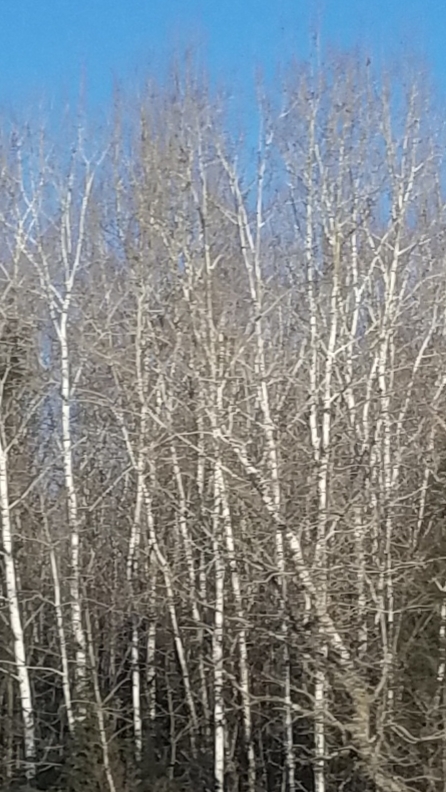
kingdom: Plantae
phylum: Tracheophyta
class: Magnoliopsida
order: Malpighiales
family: Salicaceae
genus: Populus
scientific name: Populus tremuloides
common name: Quaking aspen
